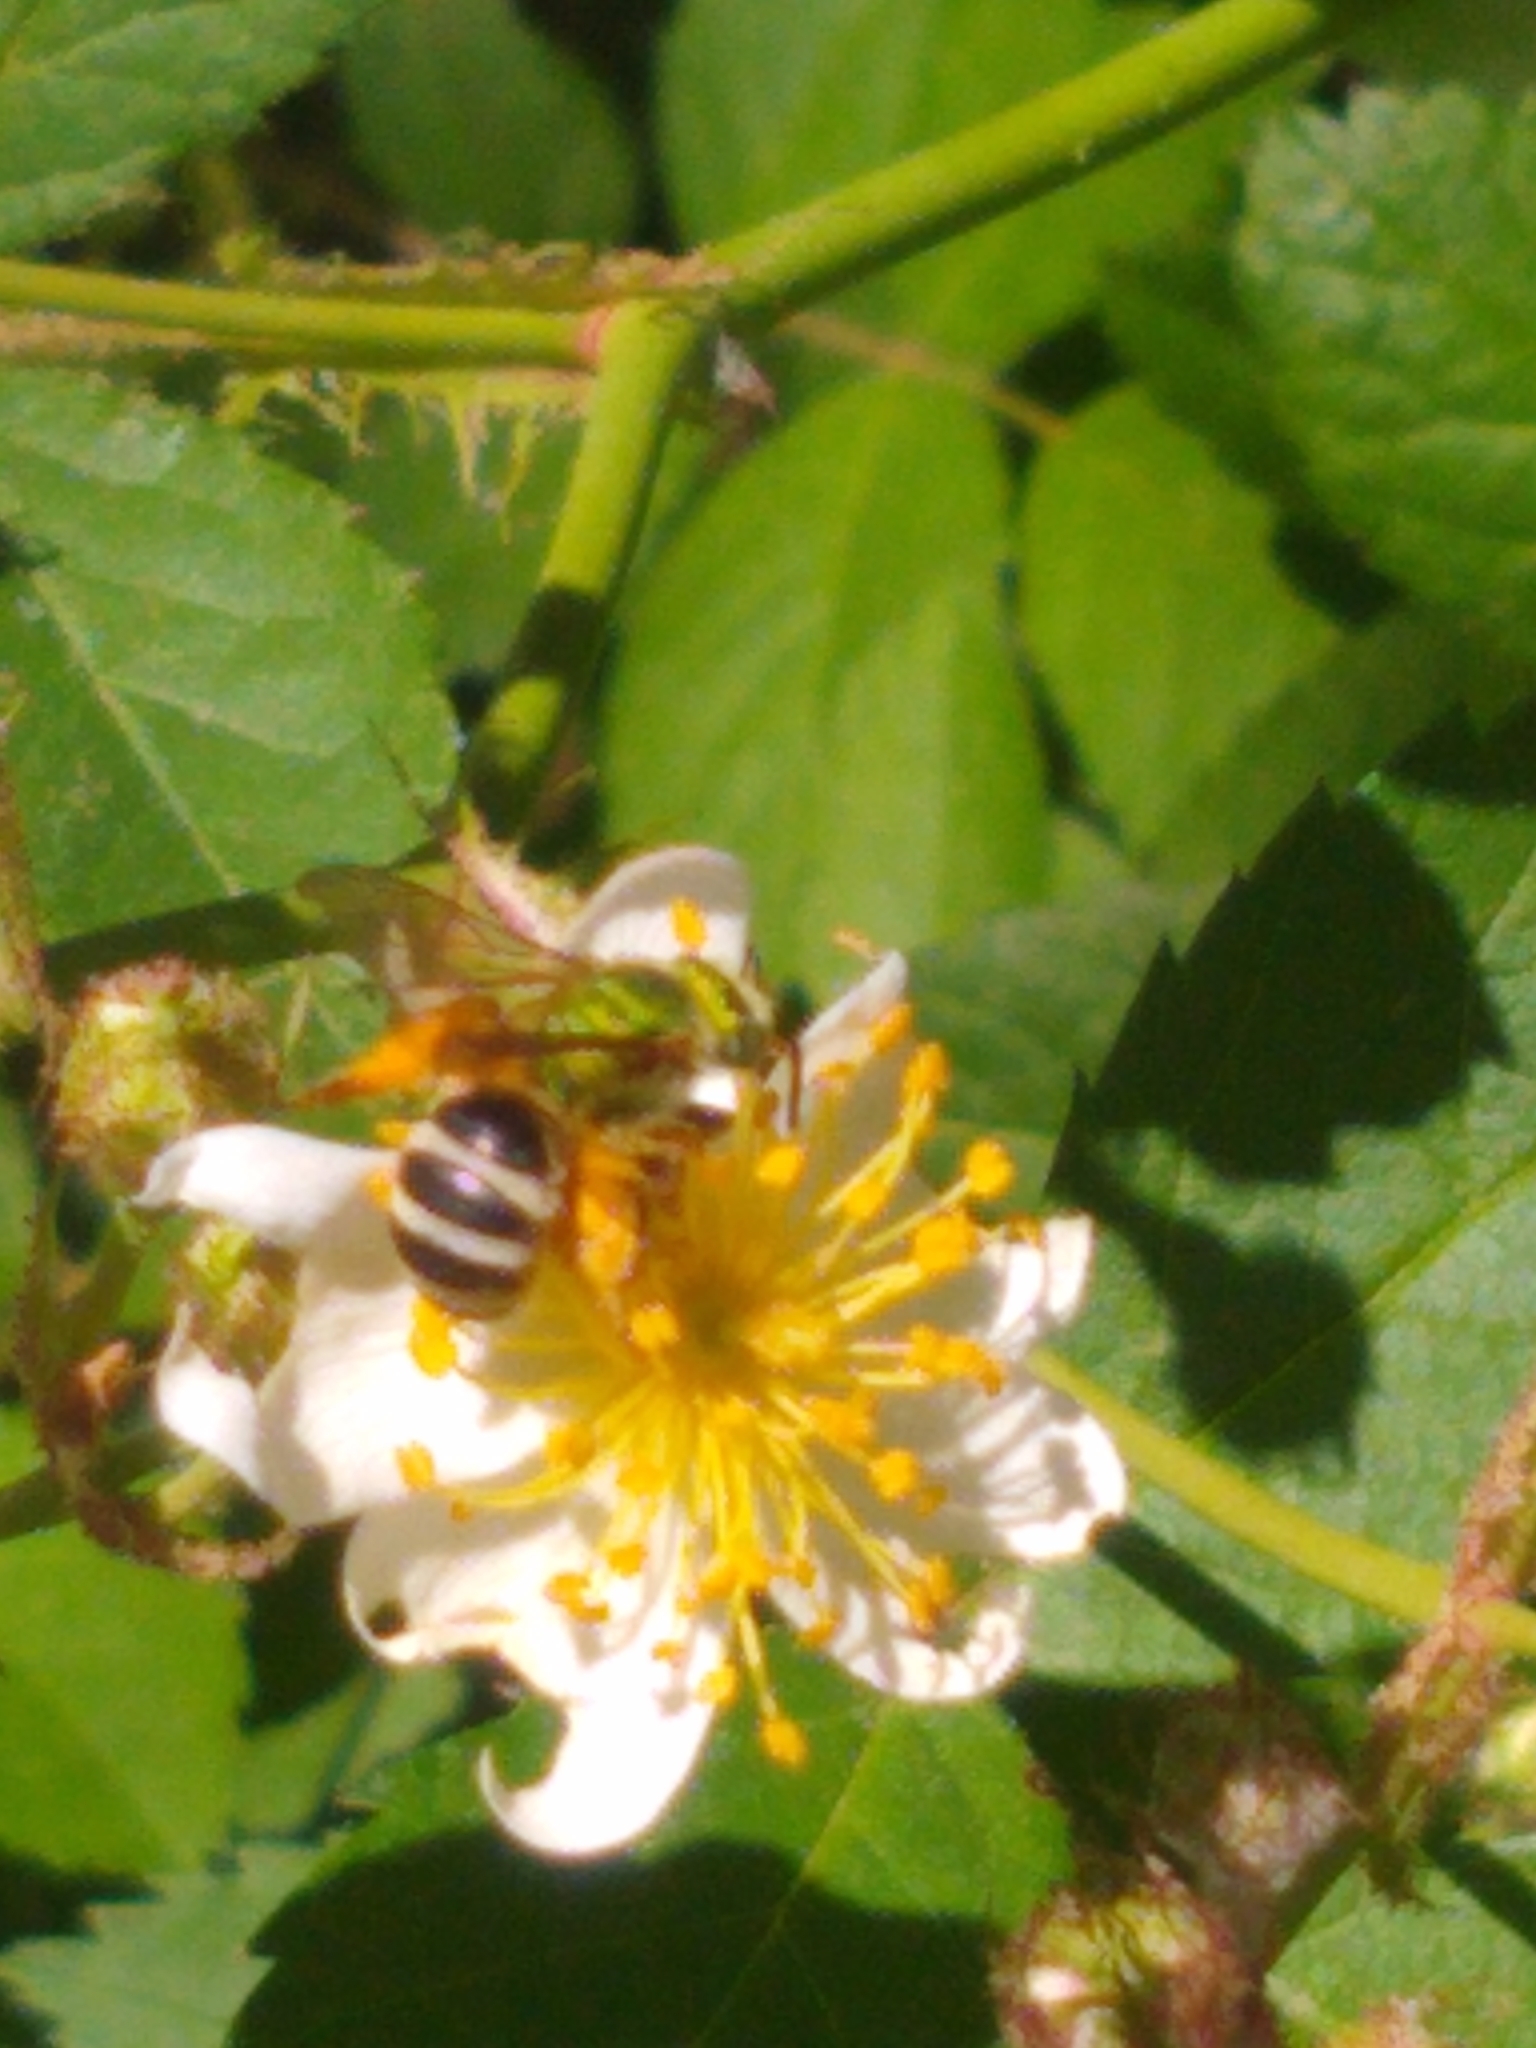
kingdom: Animalia
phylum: Arthropoda
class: Insecta
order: Hymenoptera
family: Halictidae
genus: Agapostemon
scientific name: Agapostemon virescens
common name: Bicolored striped sweat bee
